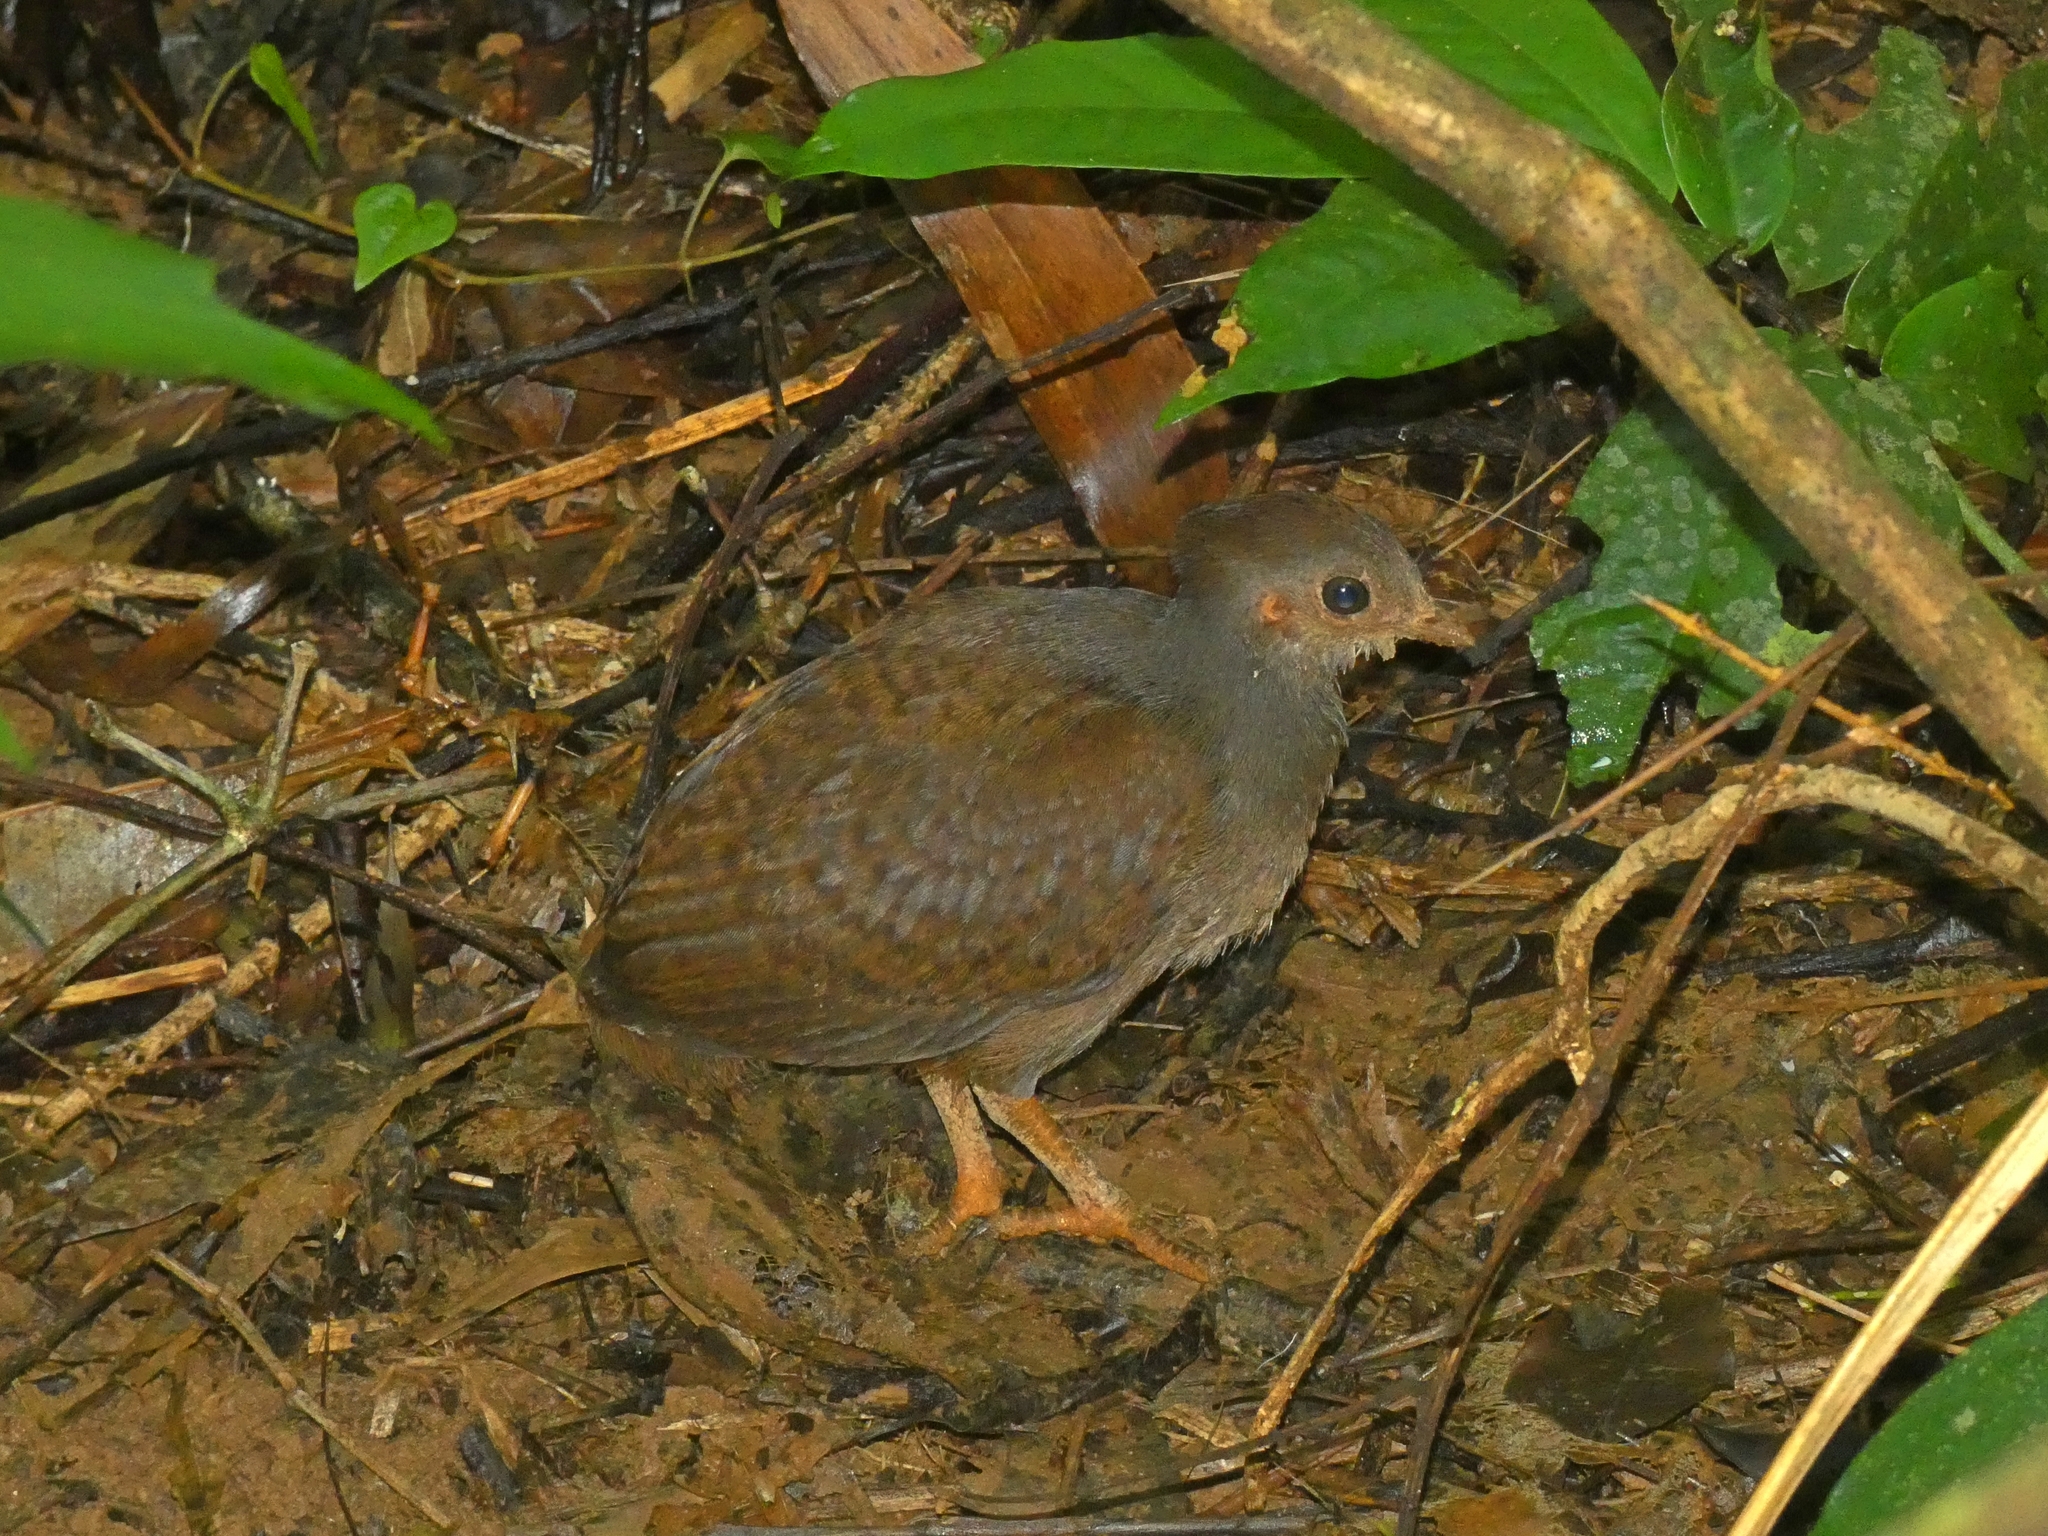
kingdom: Animalia
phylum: Chordata
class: Aves
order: Galliformes
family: Megapodiidae
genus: Megapodius
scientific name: Megapodius reinwardt
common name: Orange-footed scrubfowl
